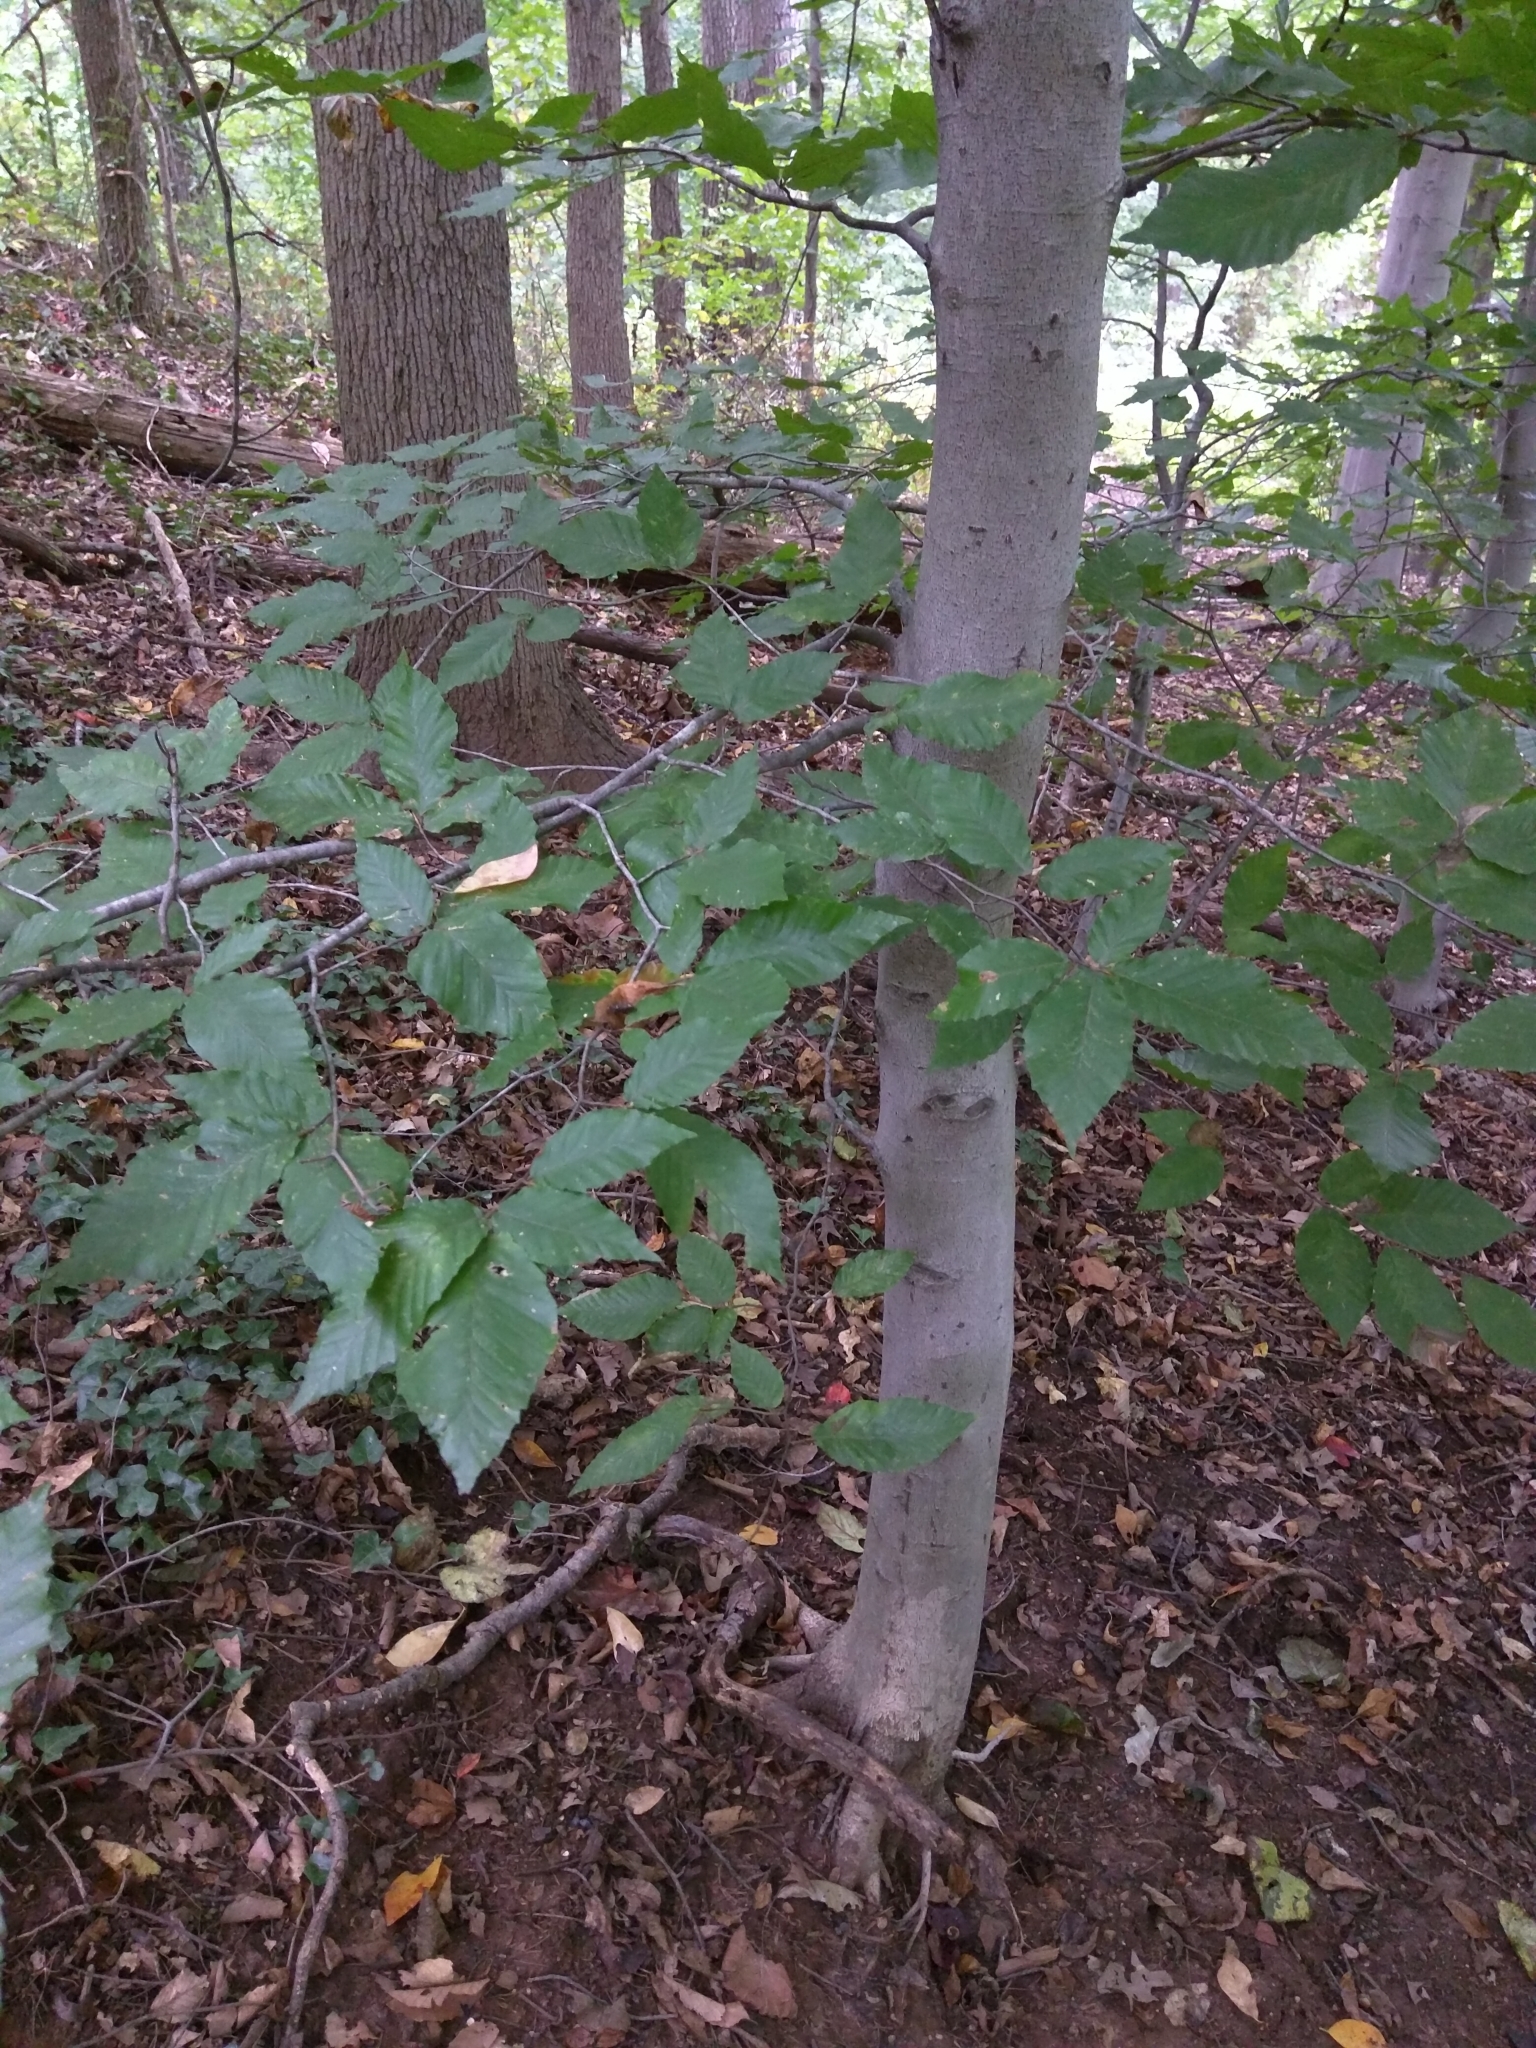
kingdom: Plantae
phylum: Tracheophyta
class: Magnoliopsida
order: Fagales
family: Fagaceae
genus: Fagus
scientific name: Fagus grandifolia
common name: American beech
